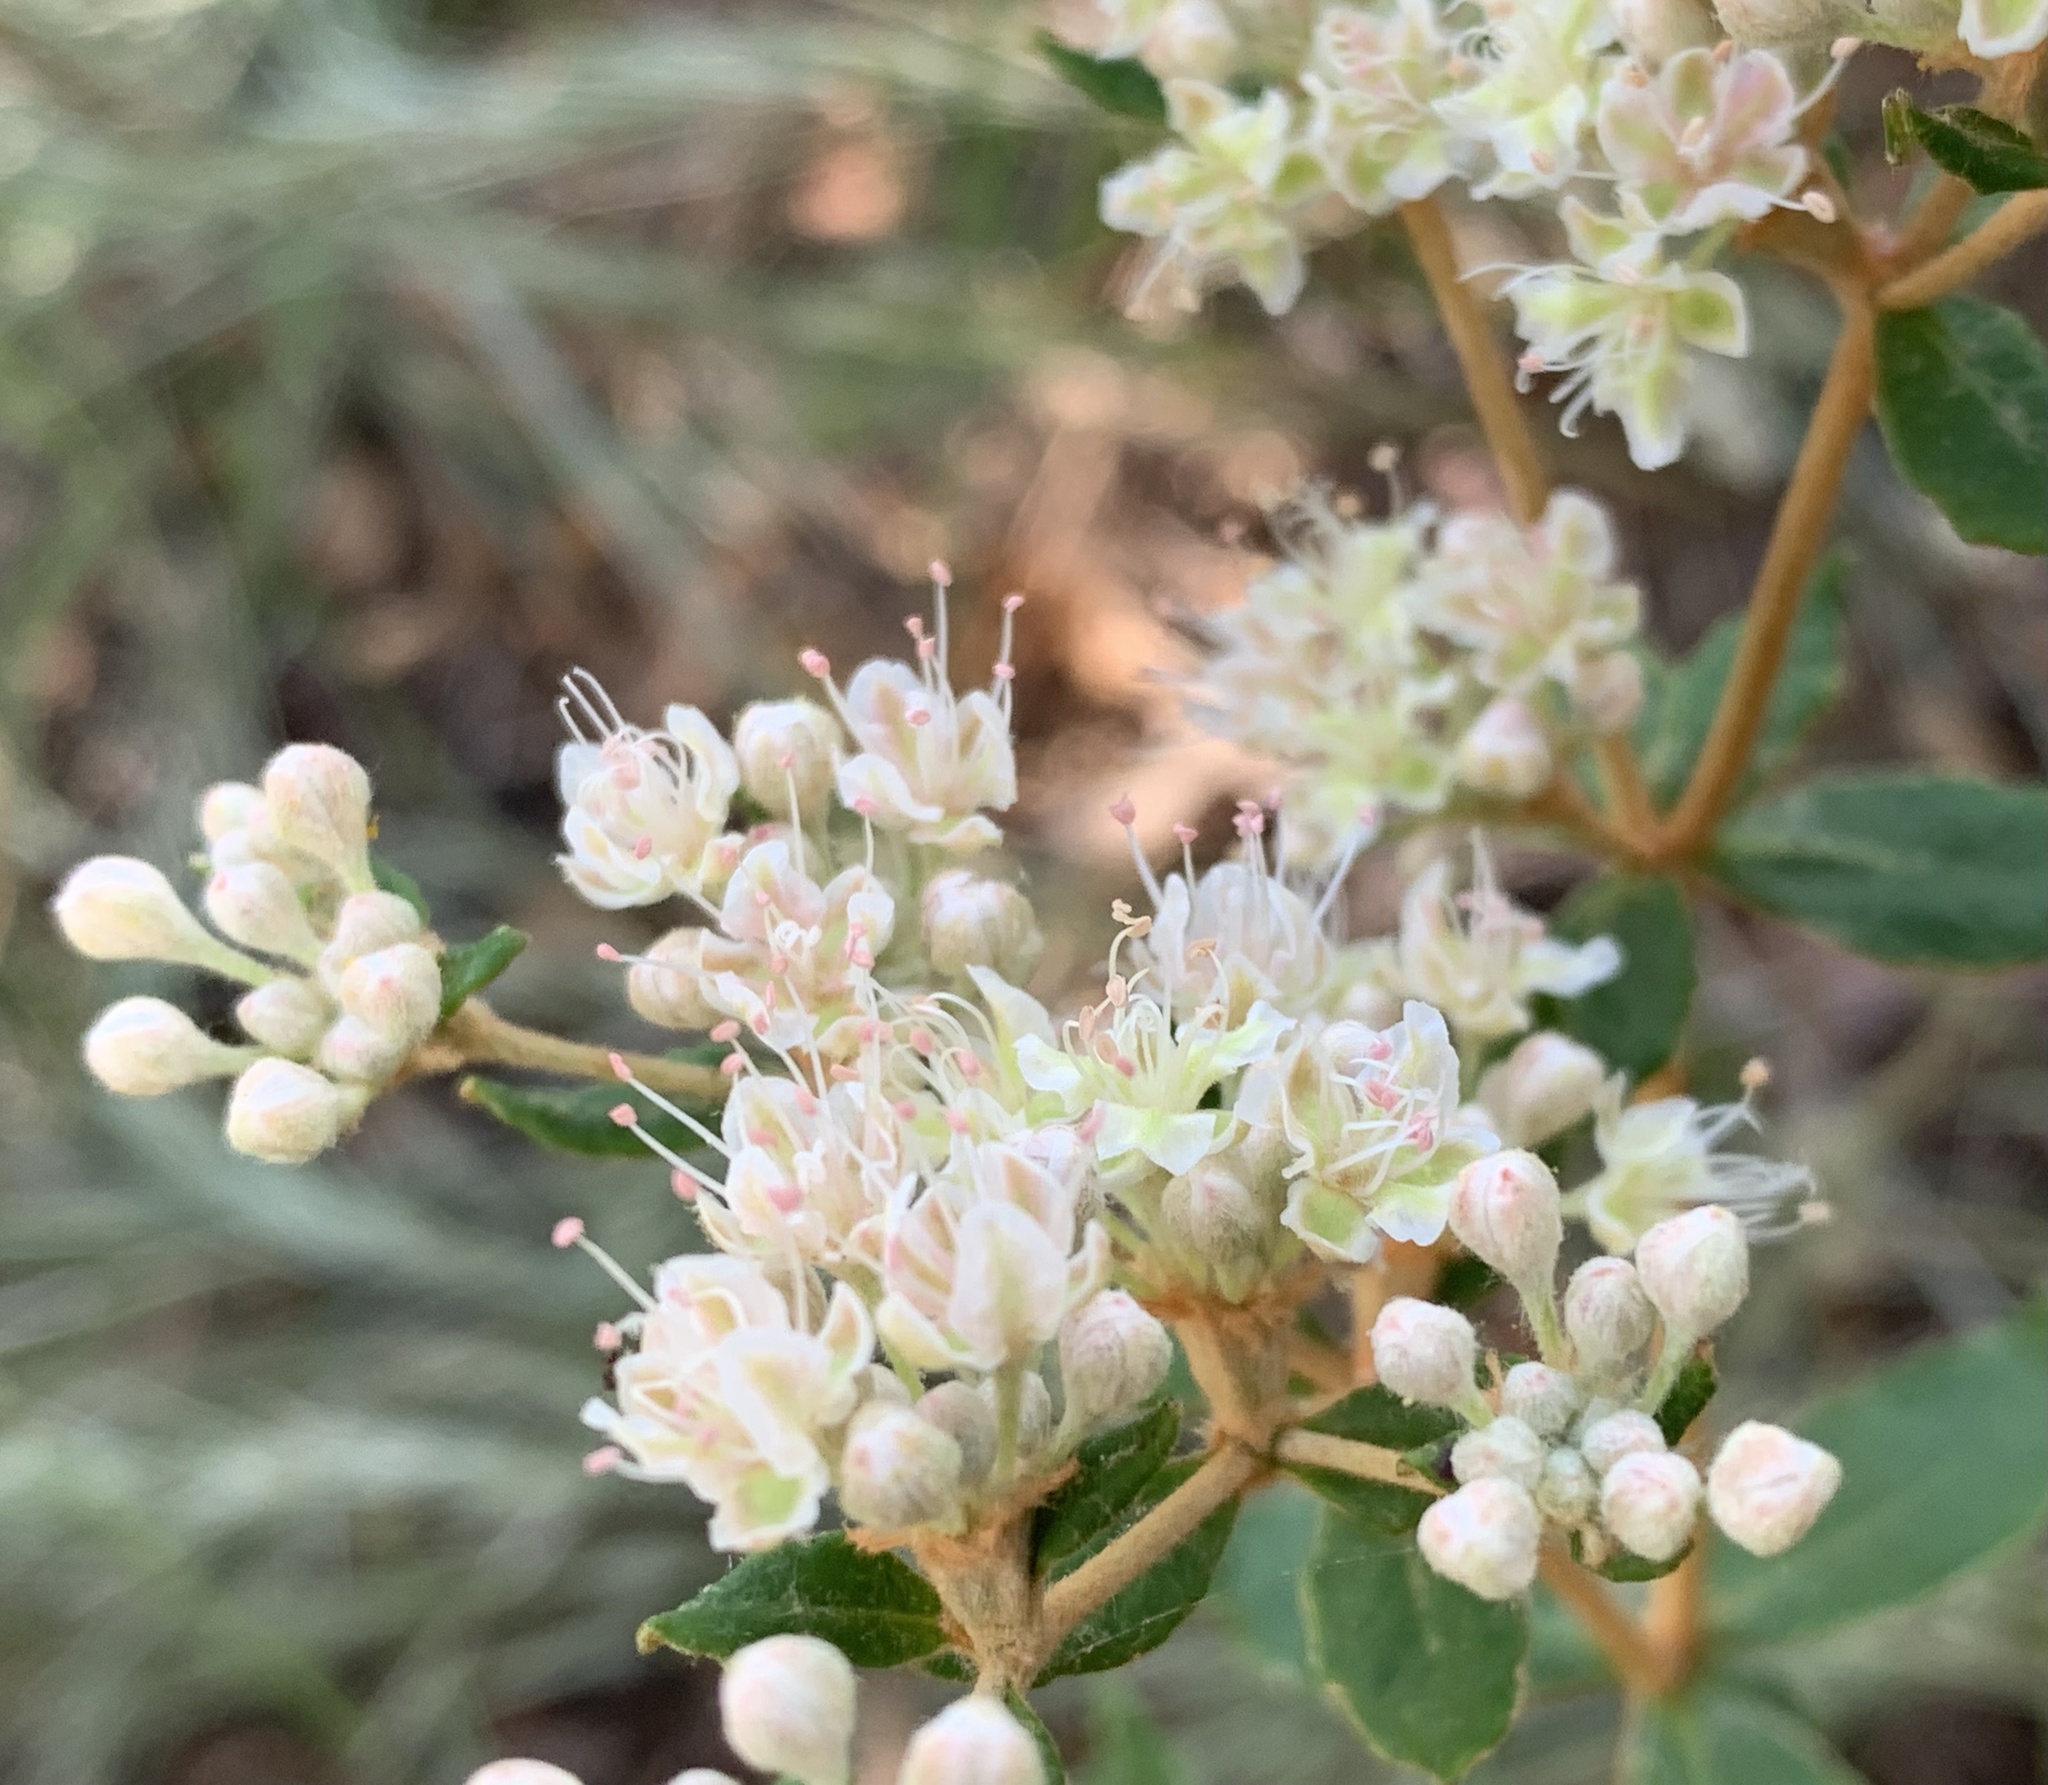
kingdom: Plantae
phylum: Tracheophyta
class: Magnoliopsida
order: Caryophyllales
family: Polygonaceae
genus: Eriogonum
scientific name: Eriogonum tomentosum
